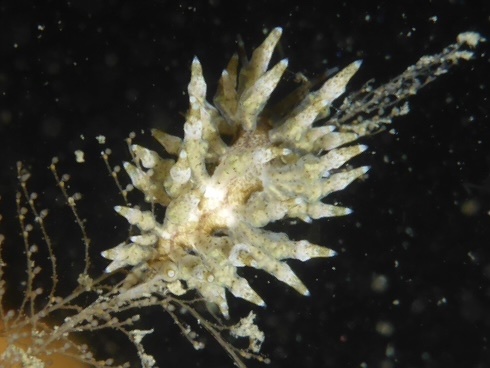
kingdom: Animalia
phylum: Mollusca
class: Gastropoda
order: Nudibranchia
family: Eubranchidae
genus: Eubranchus
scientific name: Eubranchus rustyus
